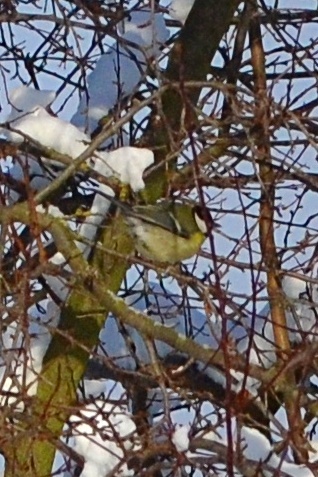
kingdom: Animalia
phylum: Chordata
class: Aves
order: Passeriformes
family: Paridae
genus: Parus
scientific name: Parus major
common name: Great tit
